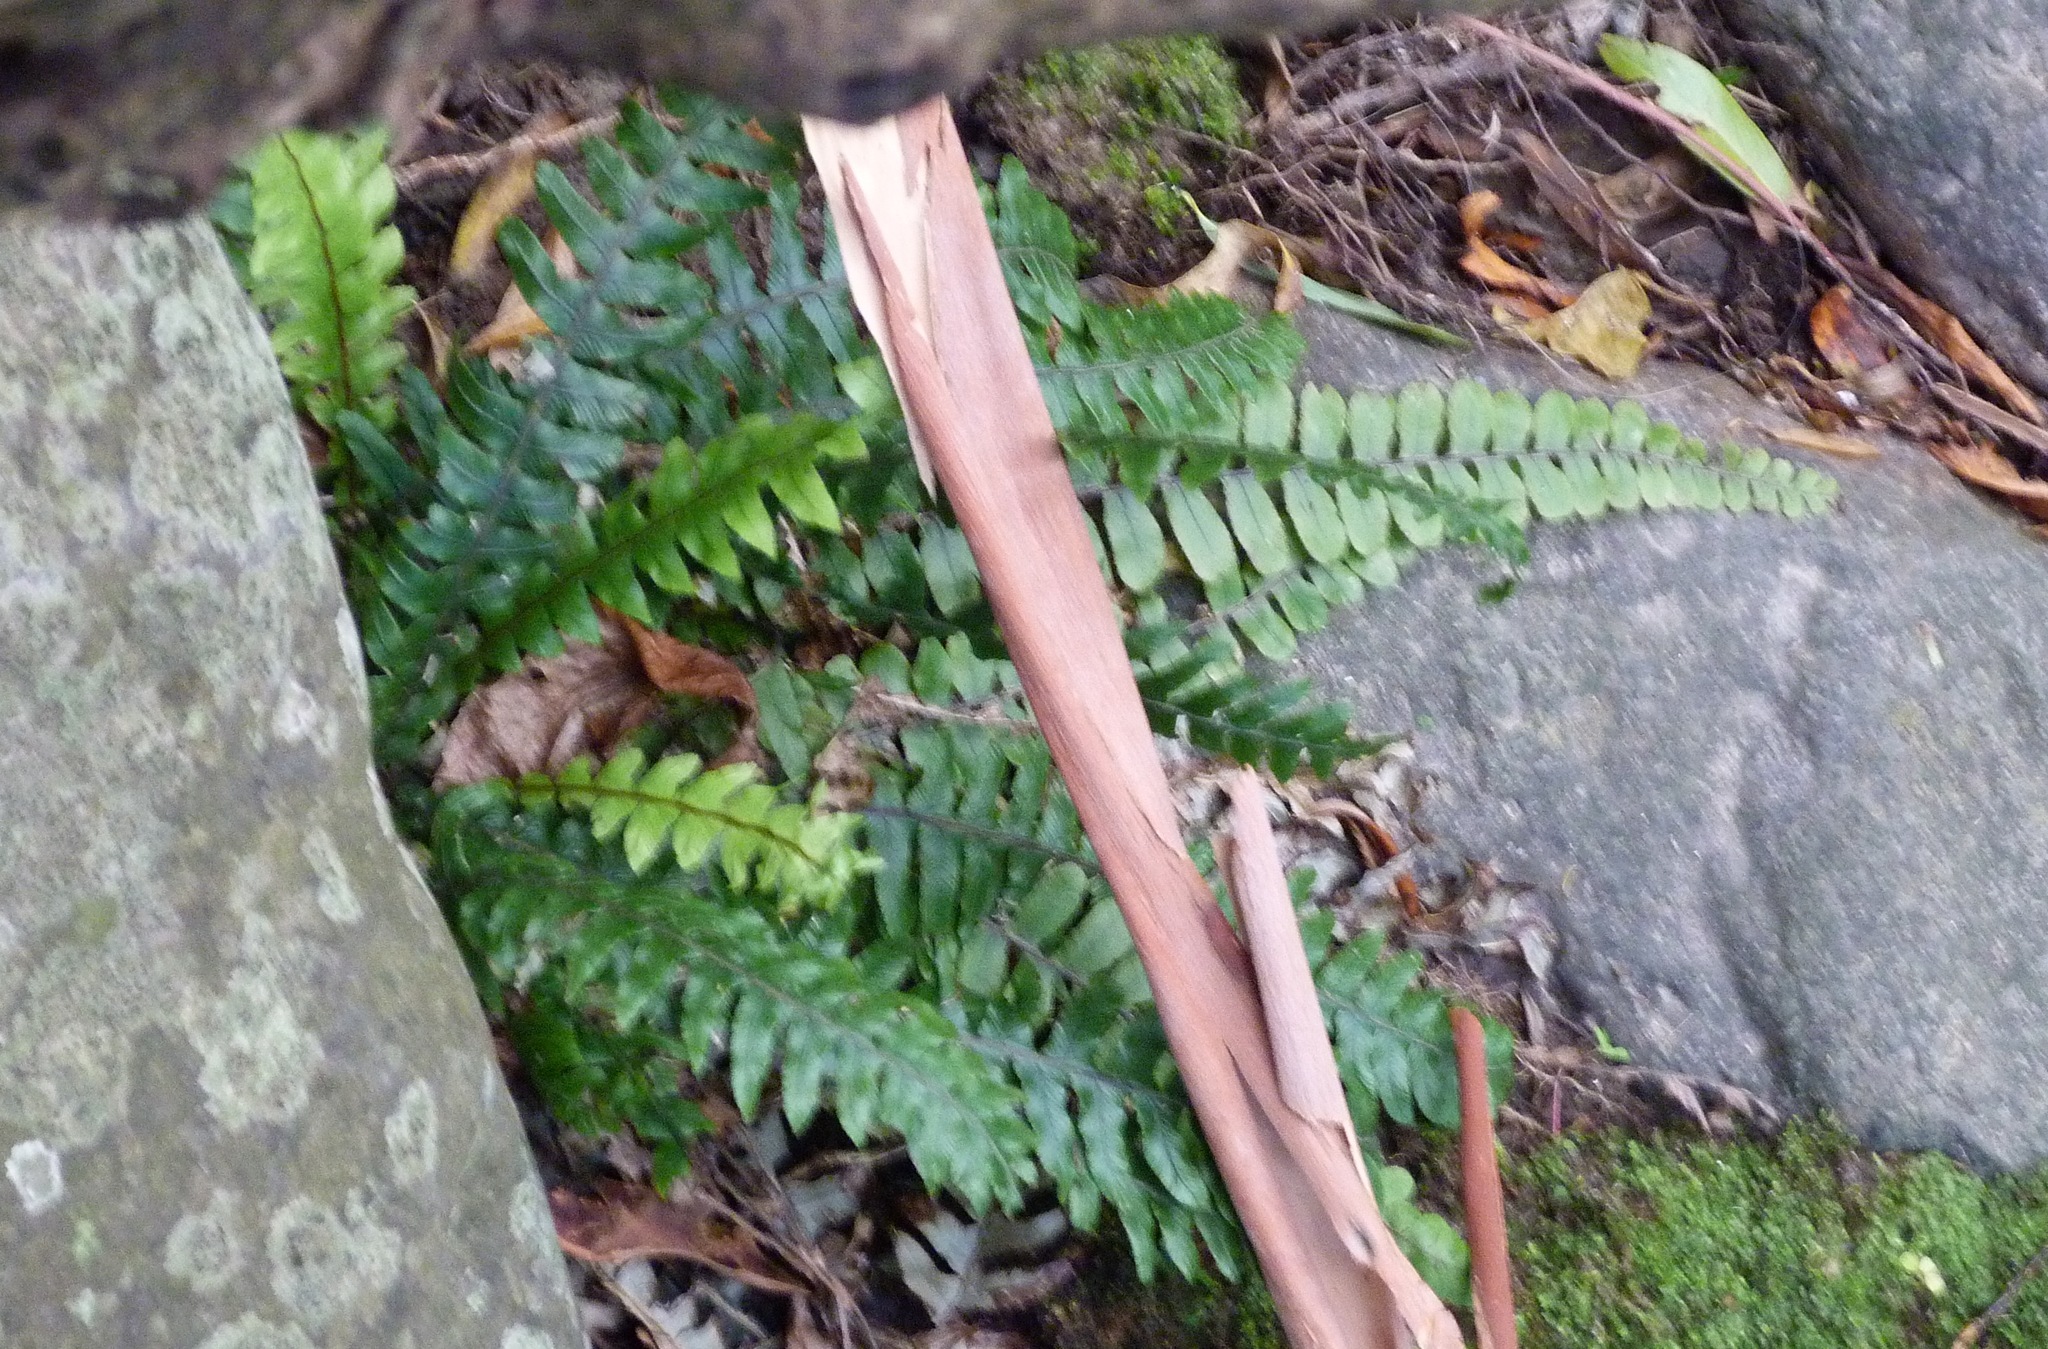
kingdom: Plantae
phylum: Tracheophyta
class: Polypodiopsida
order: Polypodiales
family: Blechnaceae
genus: Austroblechnum
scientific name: Austroblechnum lanceolatum
